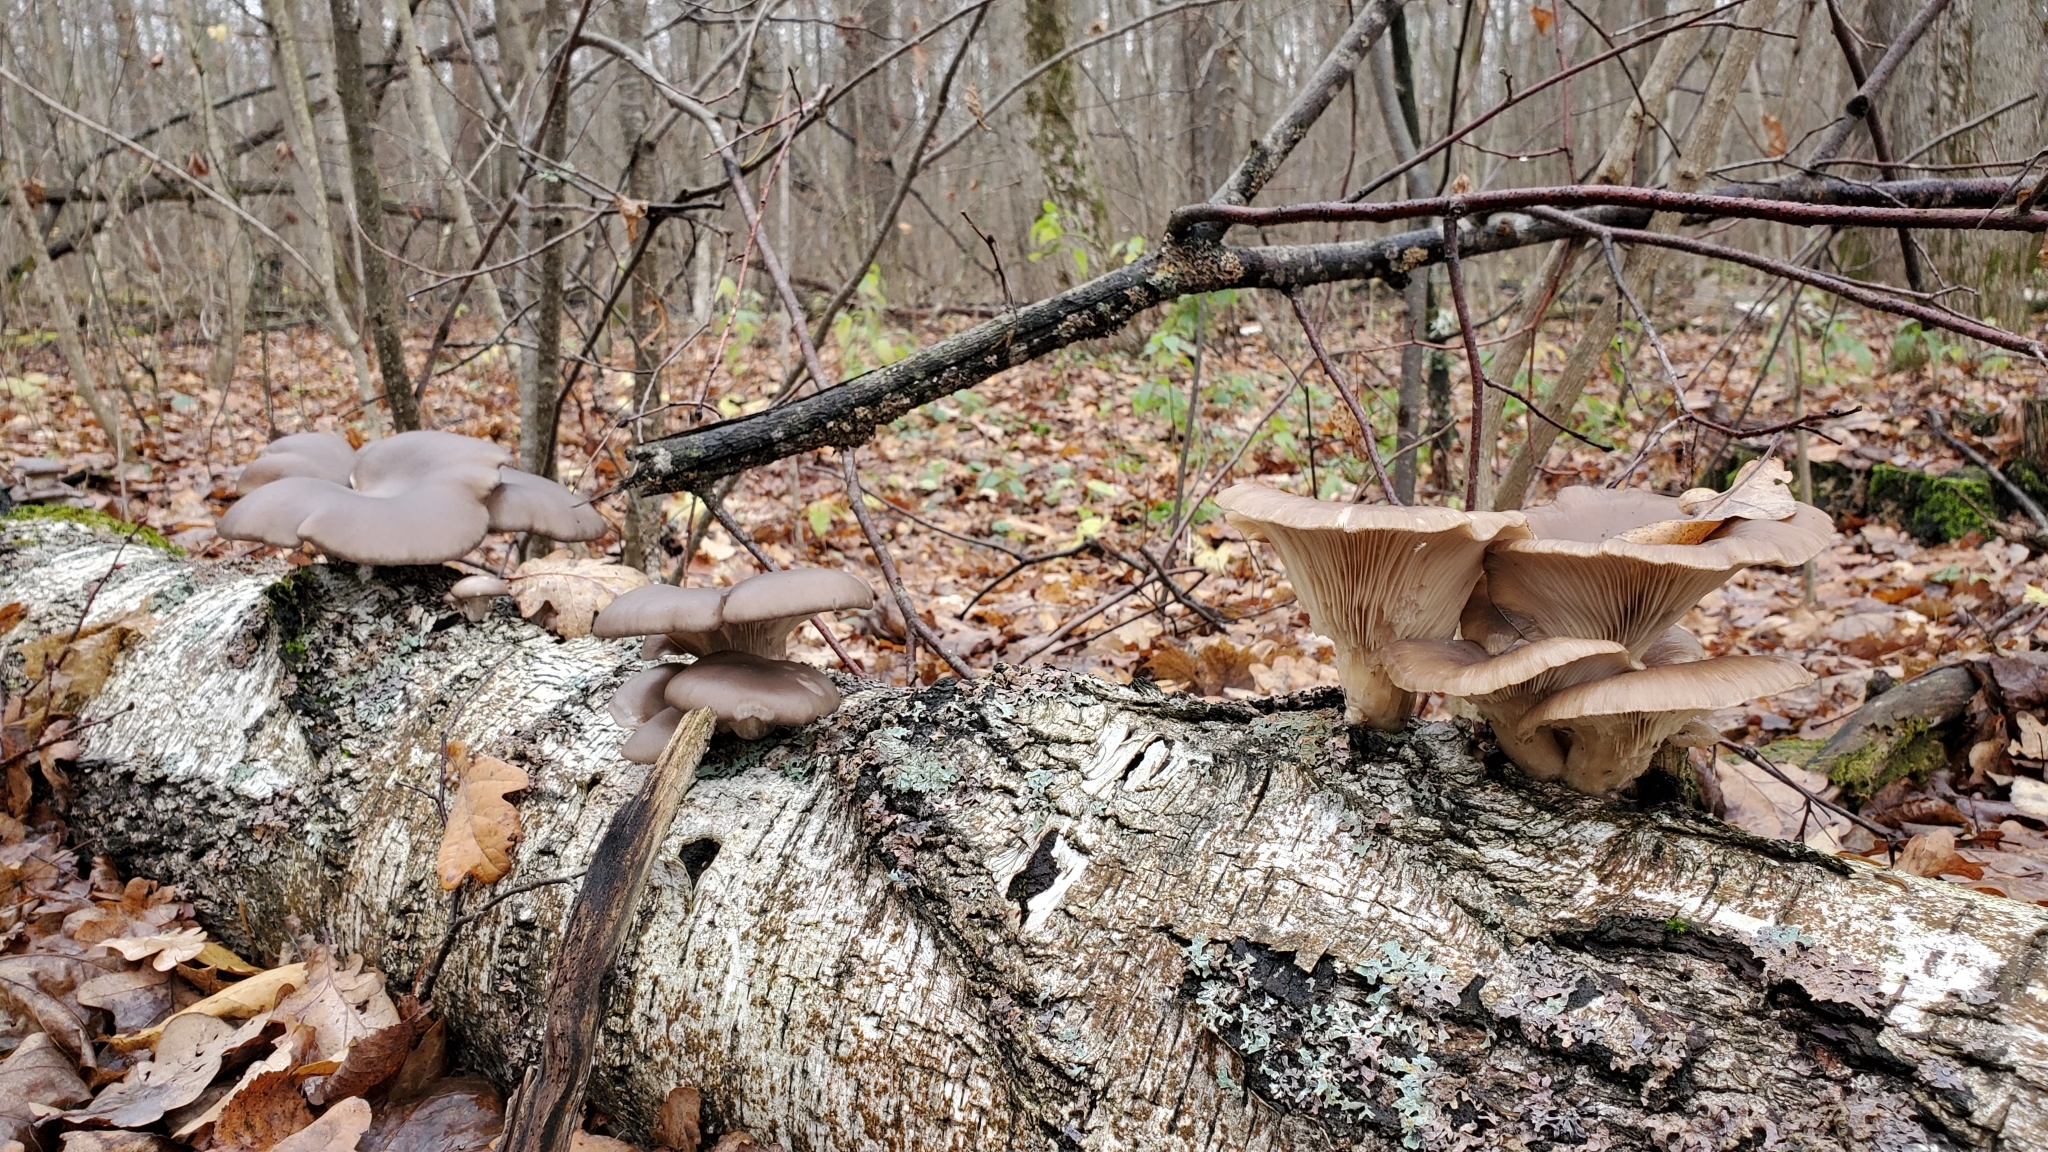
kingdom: Fungi
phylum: Basidiomycota
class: Agaricomycetes
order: Agaricales
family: Pleurotaceae
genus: Pleurotus
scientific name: Pleurotus ostreatus
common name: Oyster mushroom
